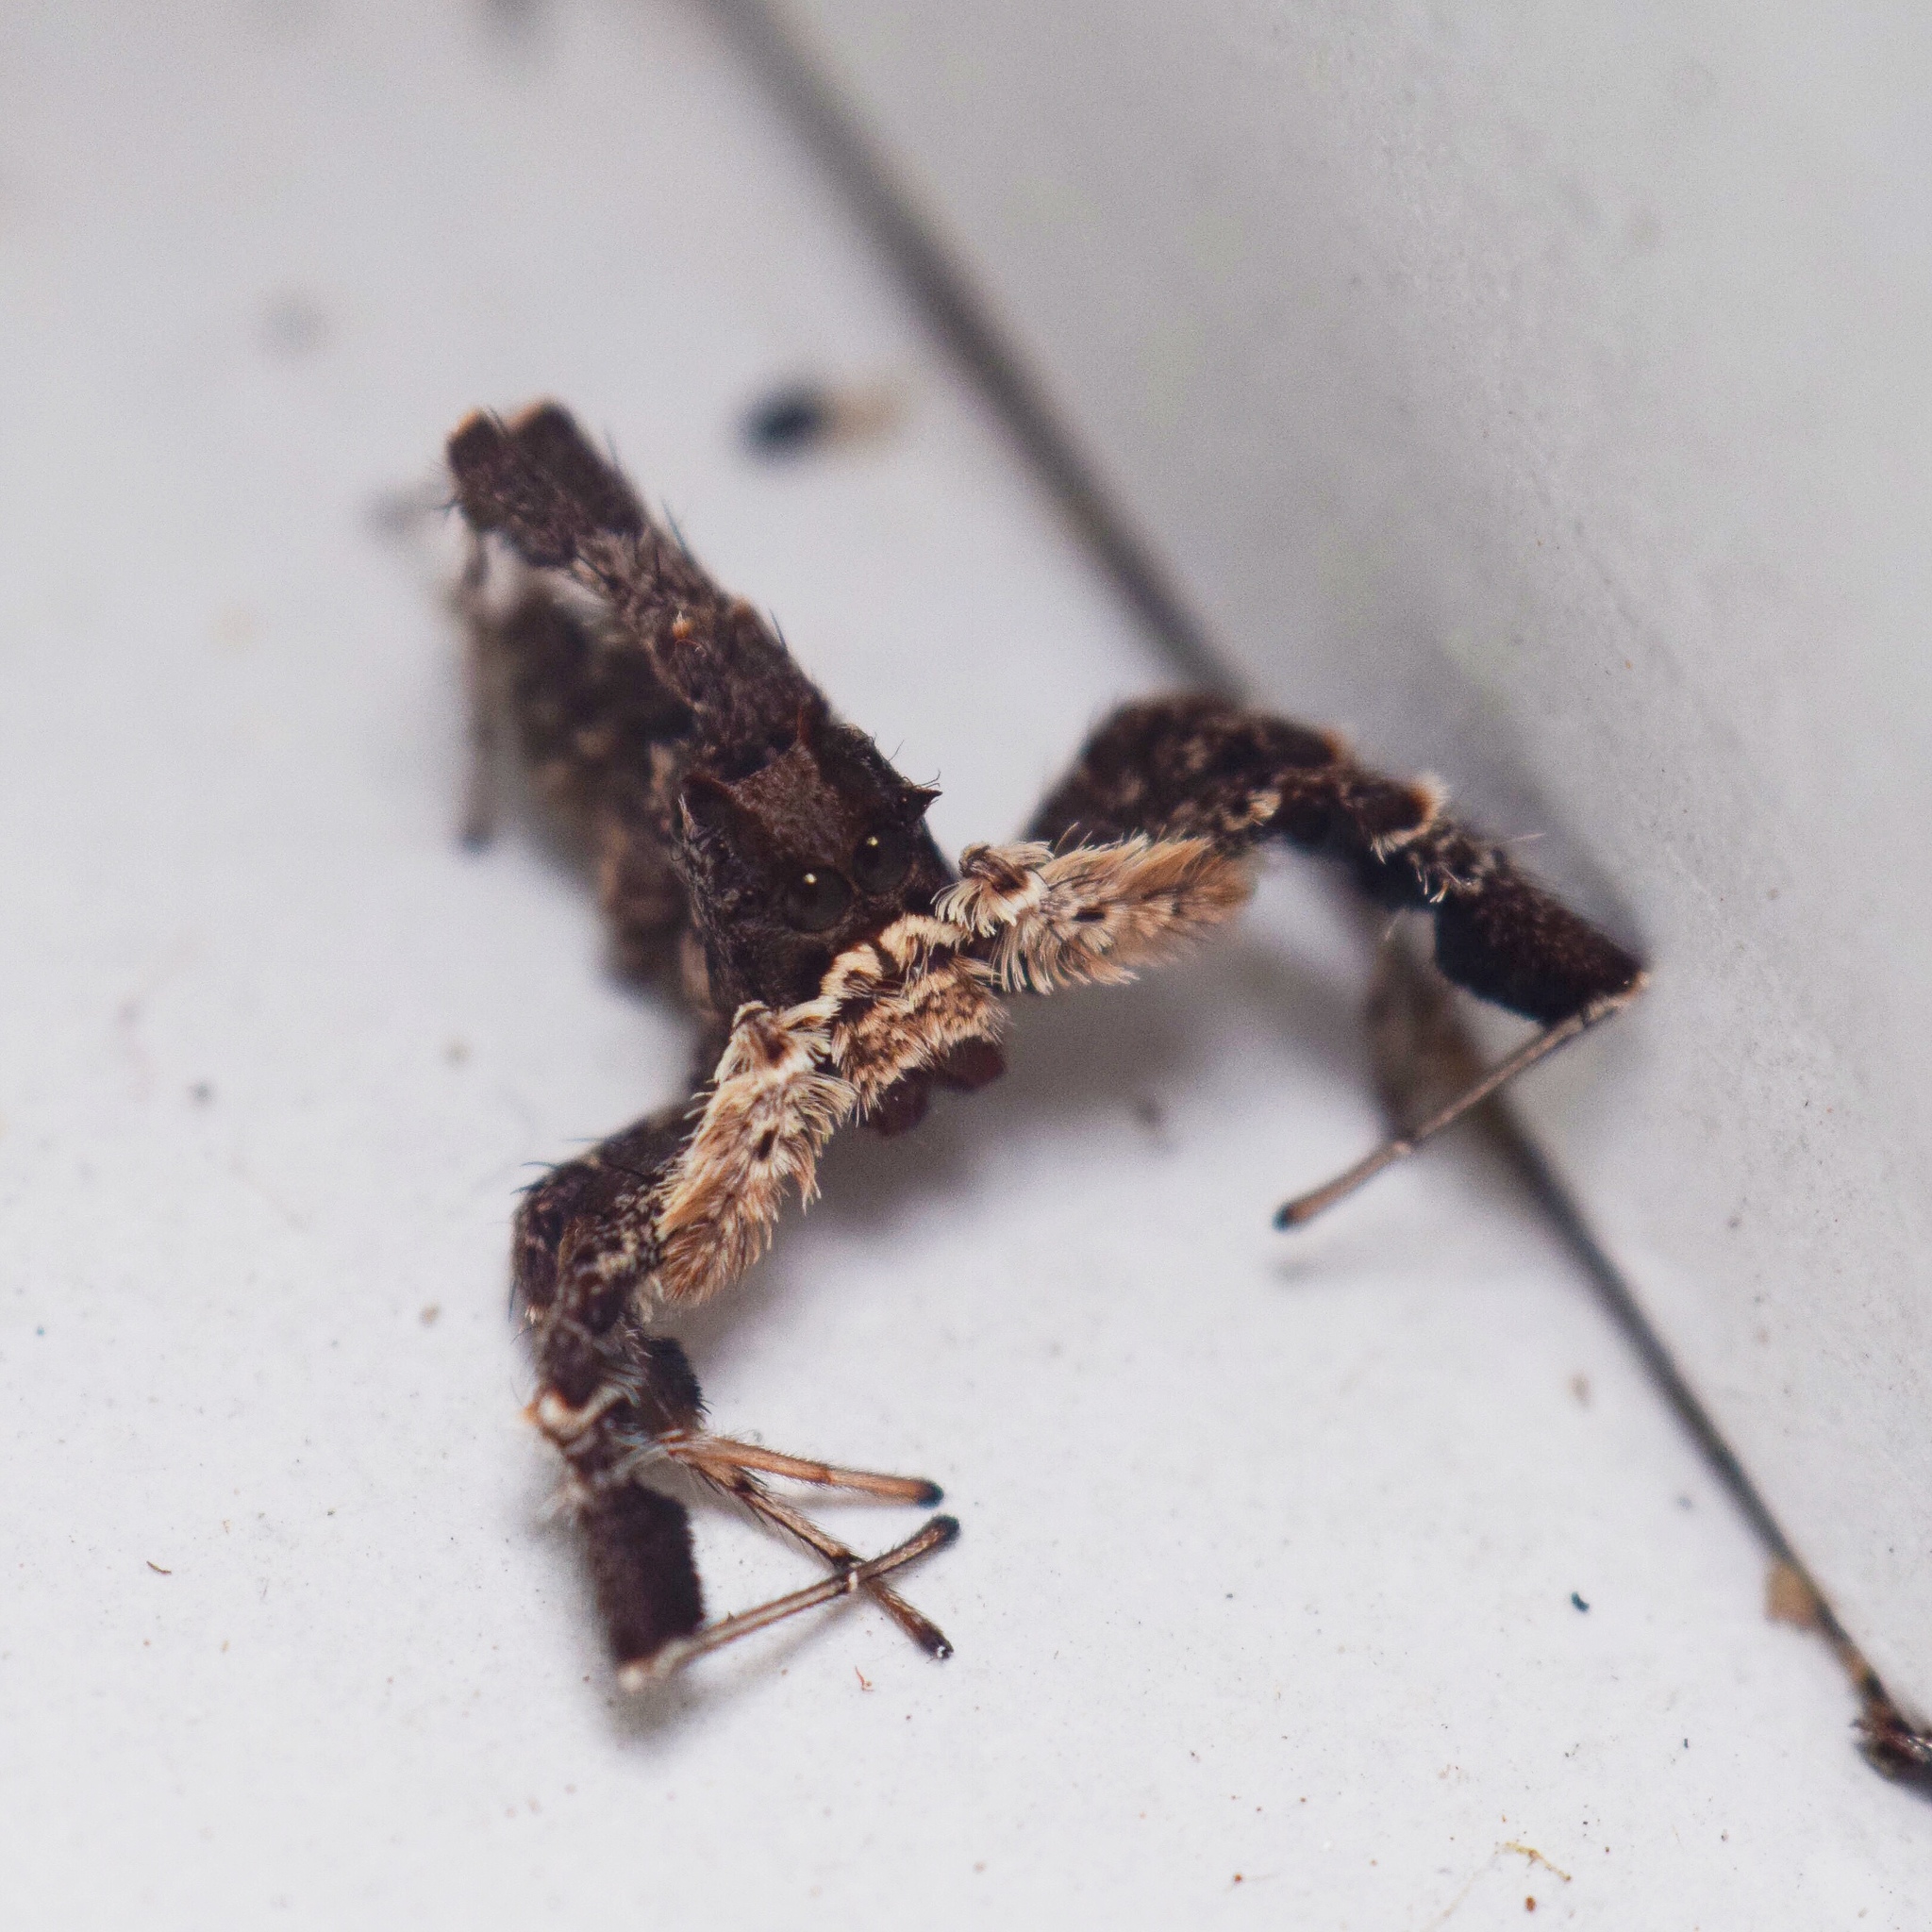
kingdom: Animalia
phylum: Arthropoda
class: Arachnida
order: Araneae
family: Salticidae
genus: Portia
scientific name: Portia schultzi
